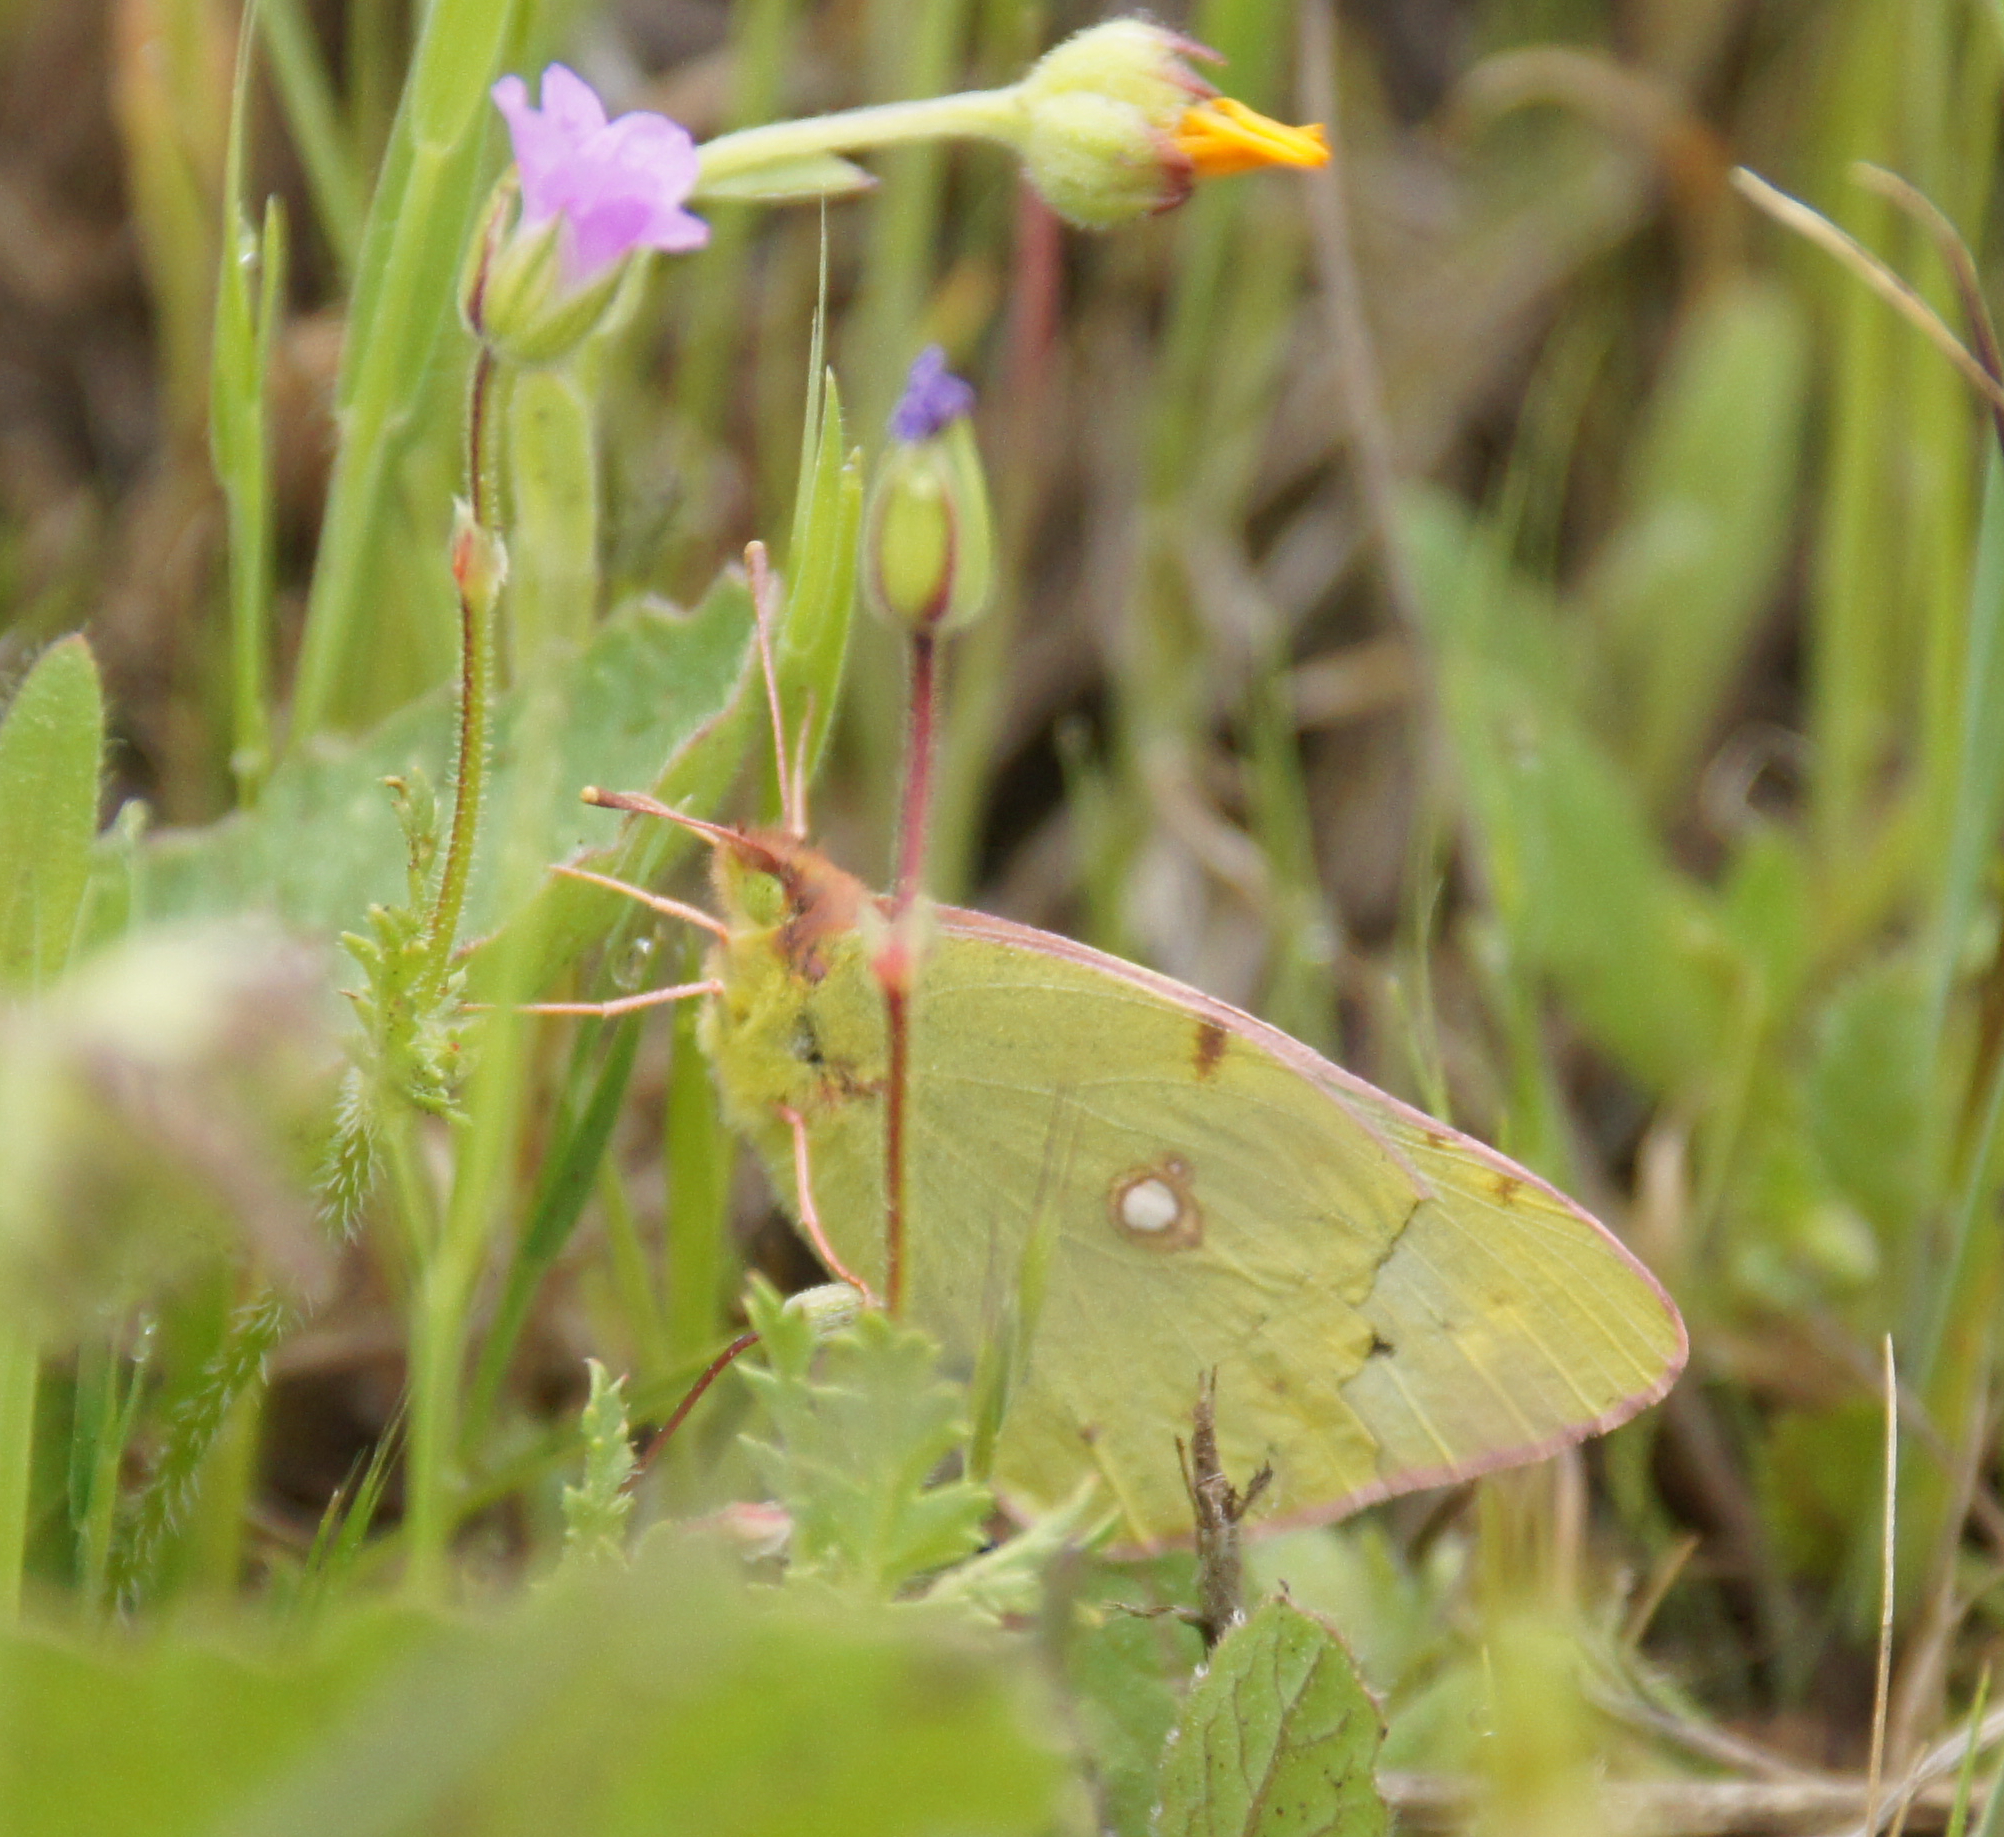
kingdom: Animalia
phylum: Arthropoda
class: Insecta
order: Lepidoptera
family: Pieridae
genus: Colias
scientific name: Colias croceus
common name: Clouded yellow
